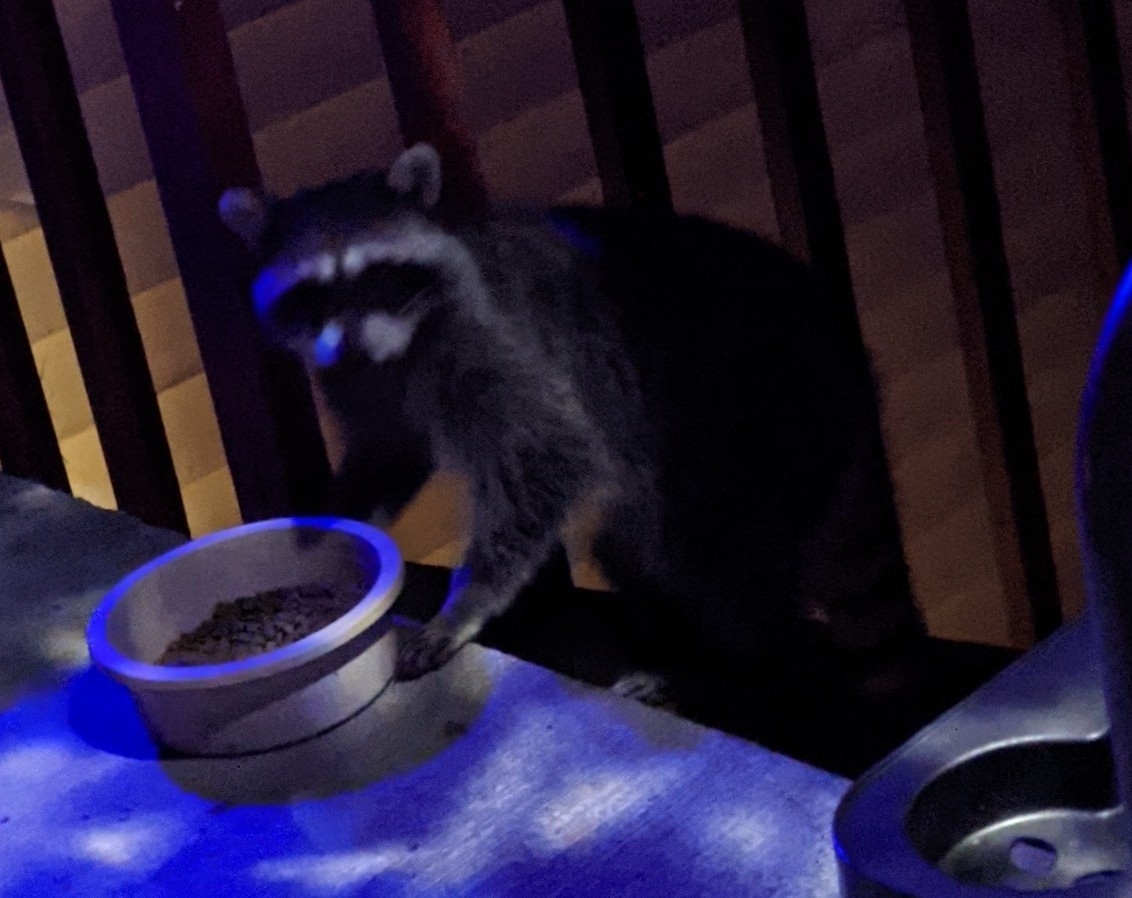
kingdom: Animalia
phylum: Chordata
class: Mammalia
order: Carnivora
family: Procyonidae
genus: Procyon
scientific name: Procyon lotor
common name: Raccoon
